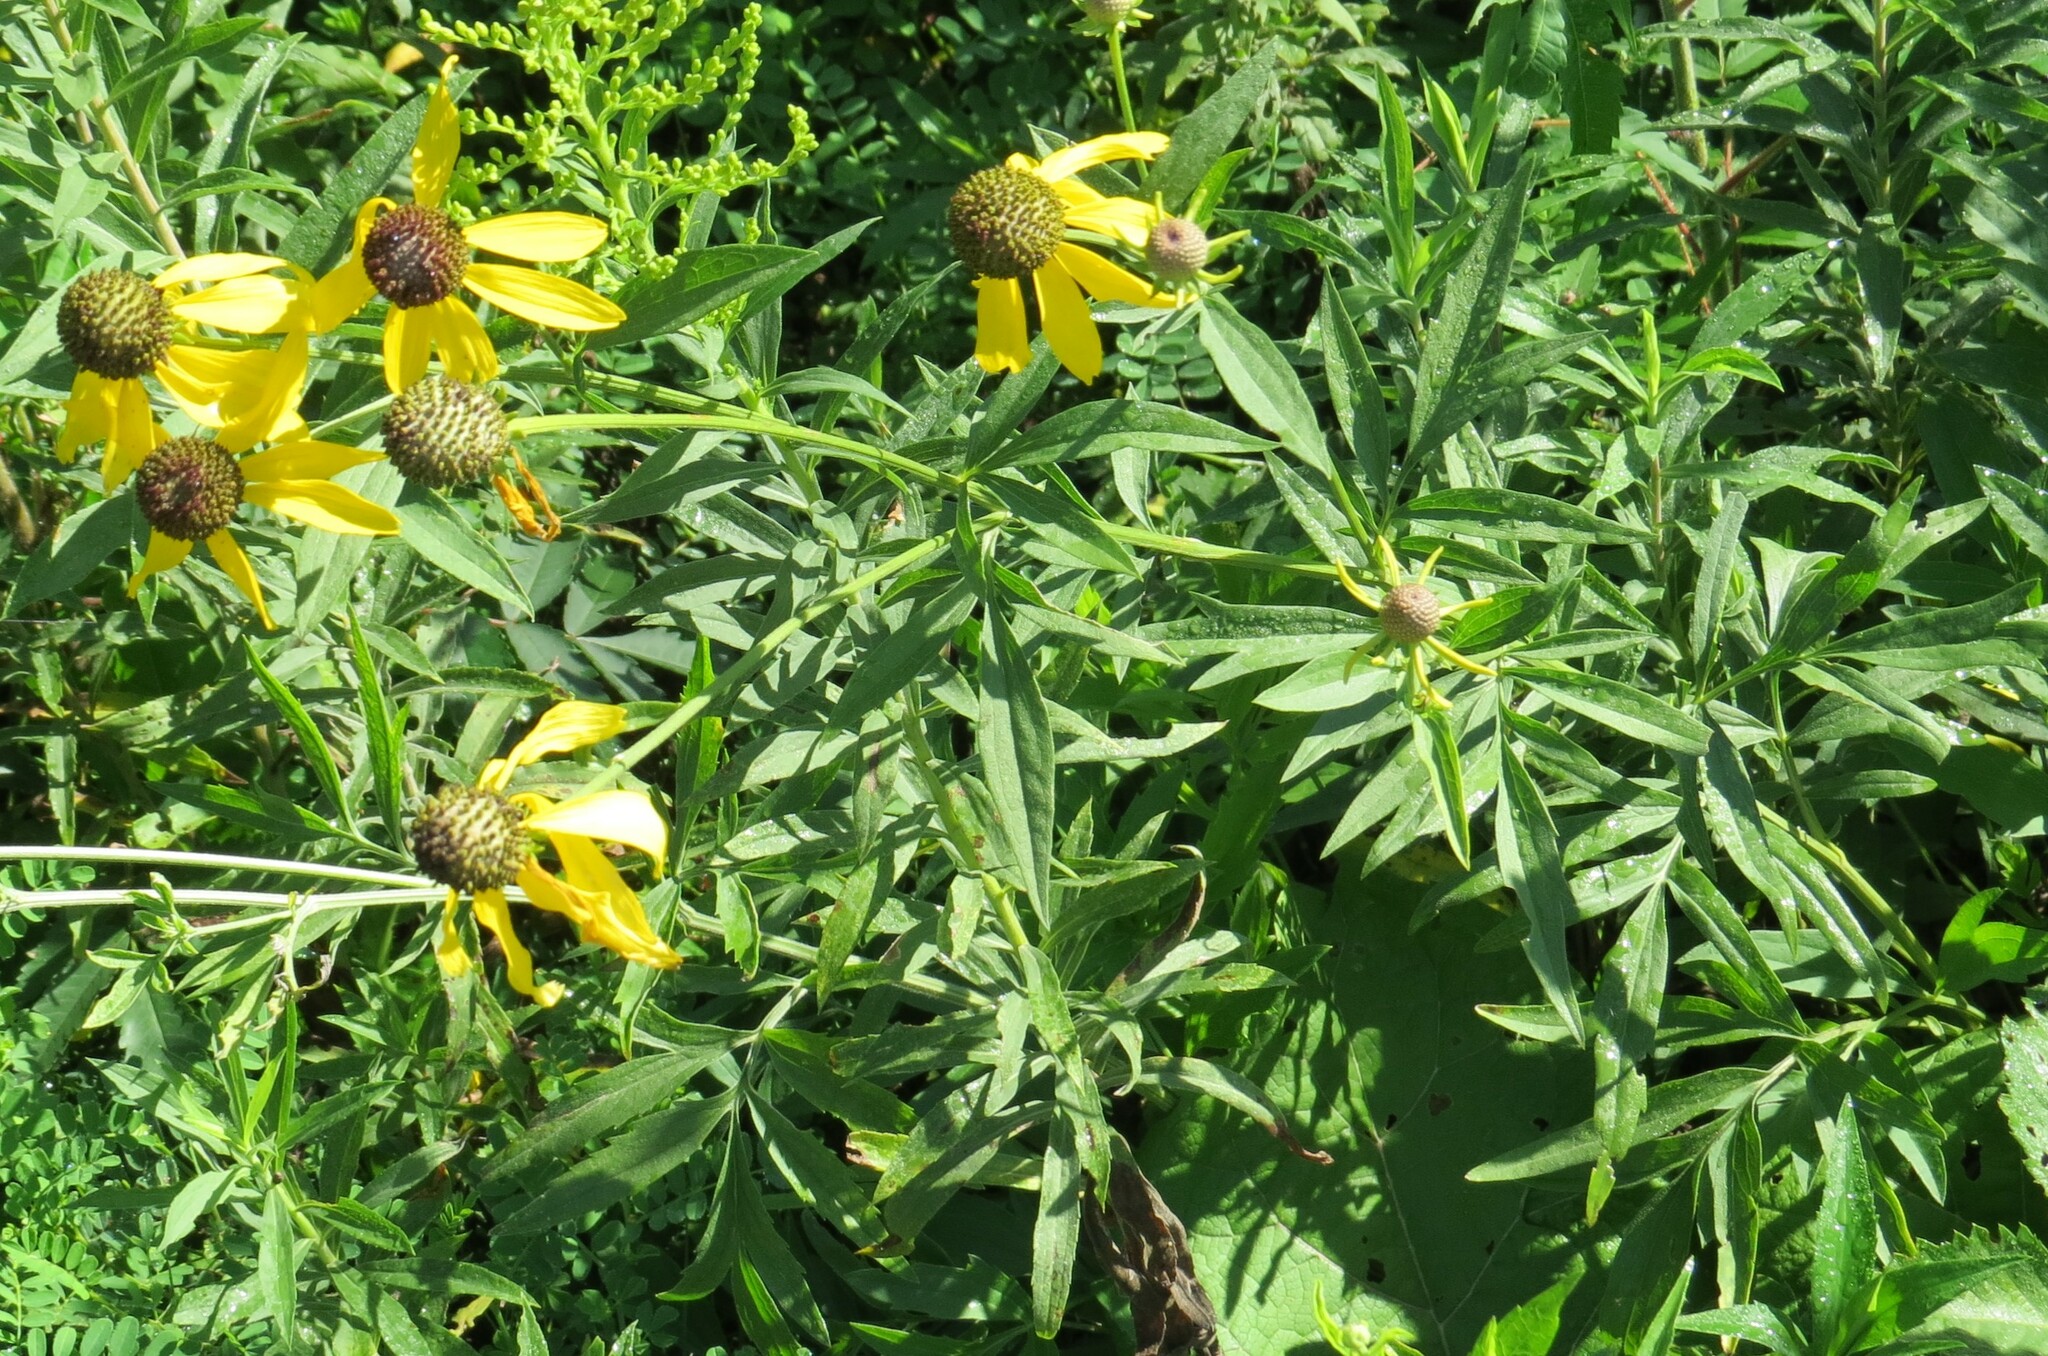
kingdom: Plantae
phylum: Tracheophyta
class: Magnoliopsida
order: Asterales
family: Asteraceae
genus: Ratibida
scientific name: Ratibida pinnata
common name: Drooping prairie-coneflower
